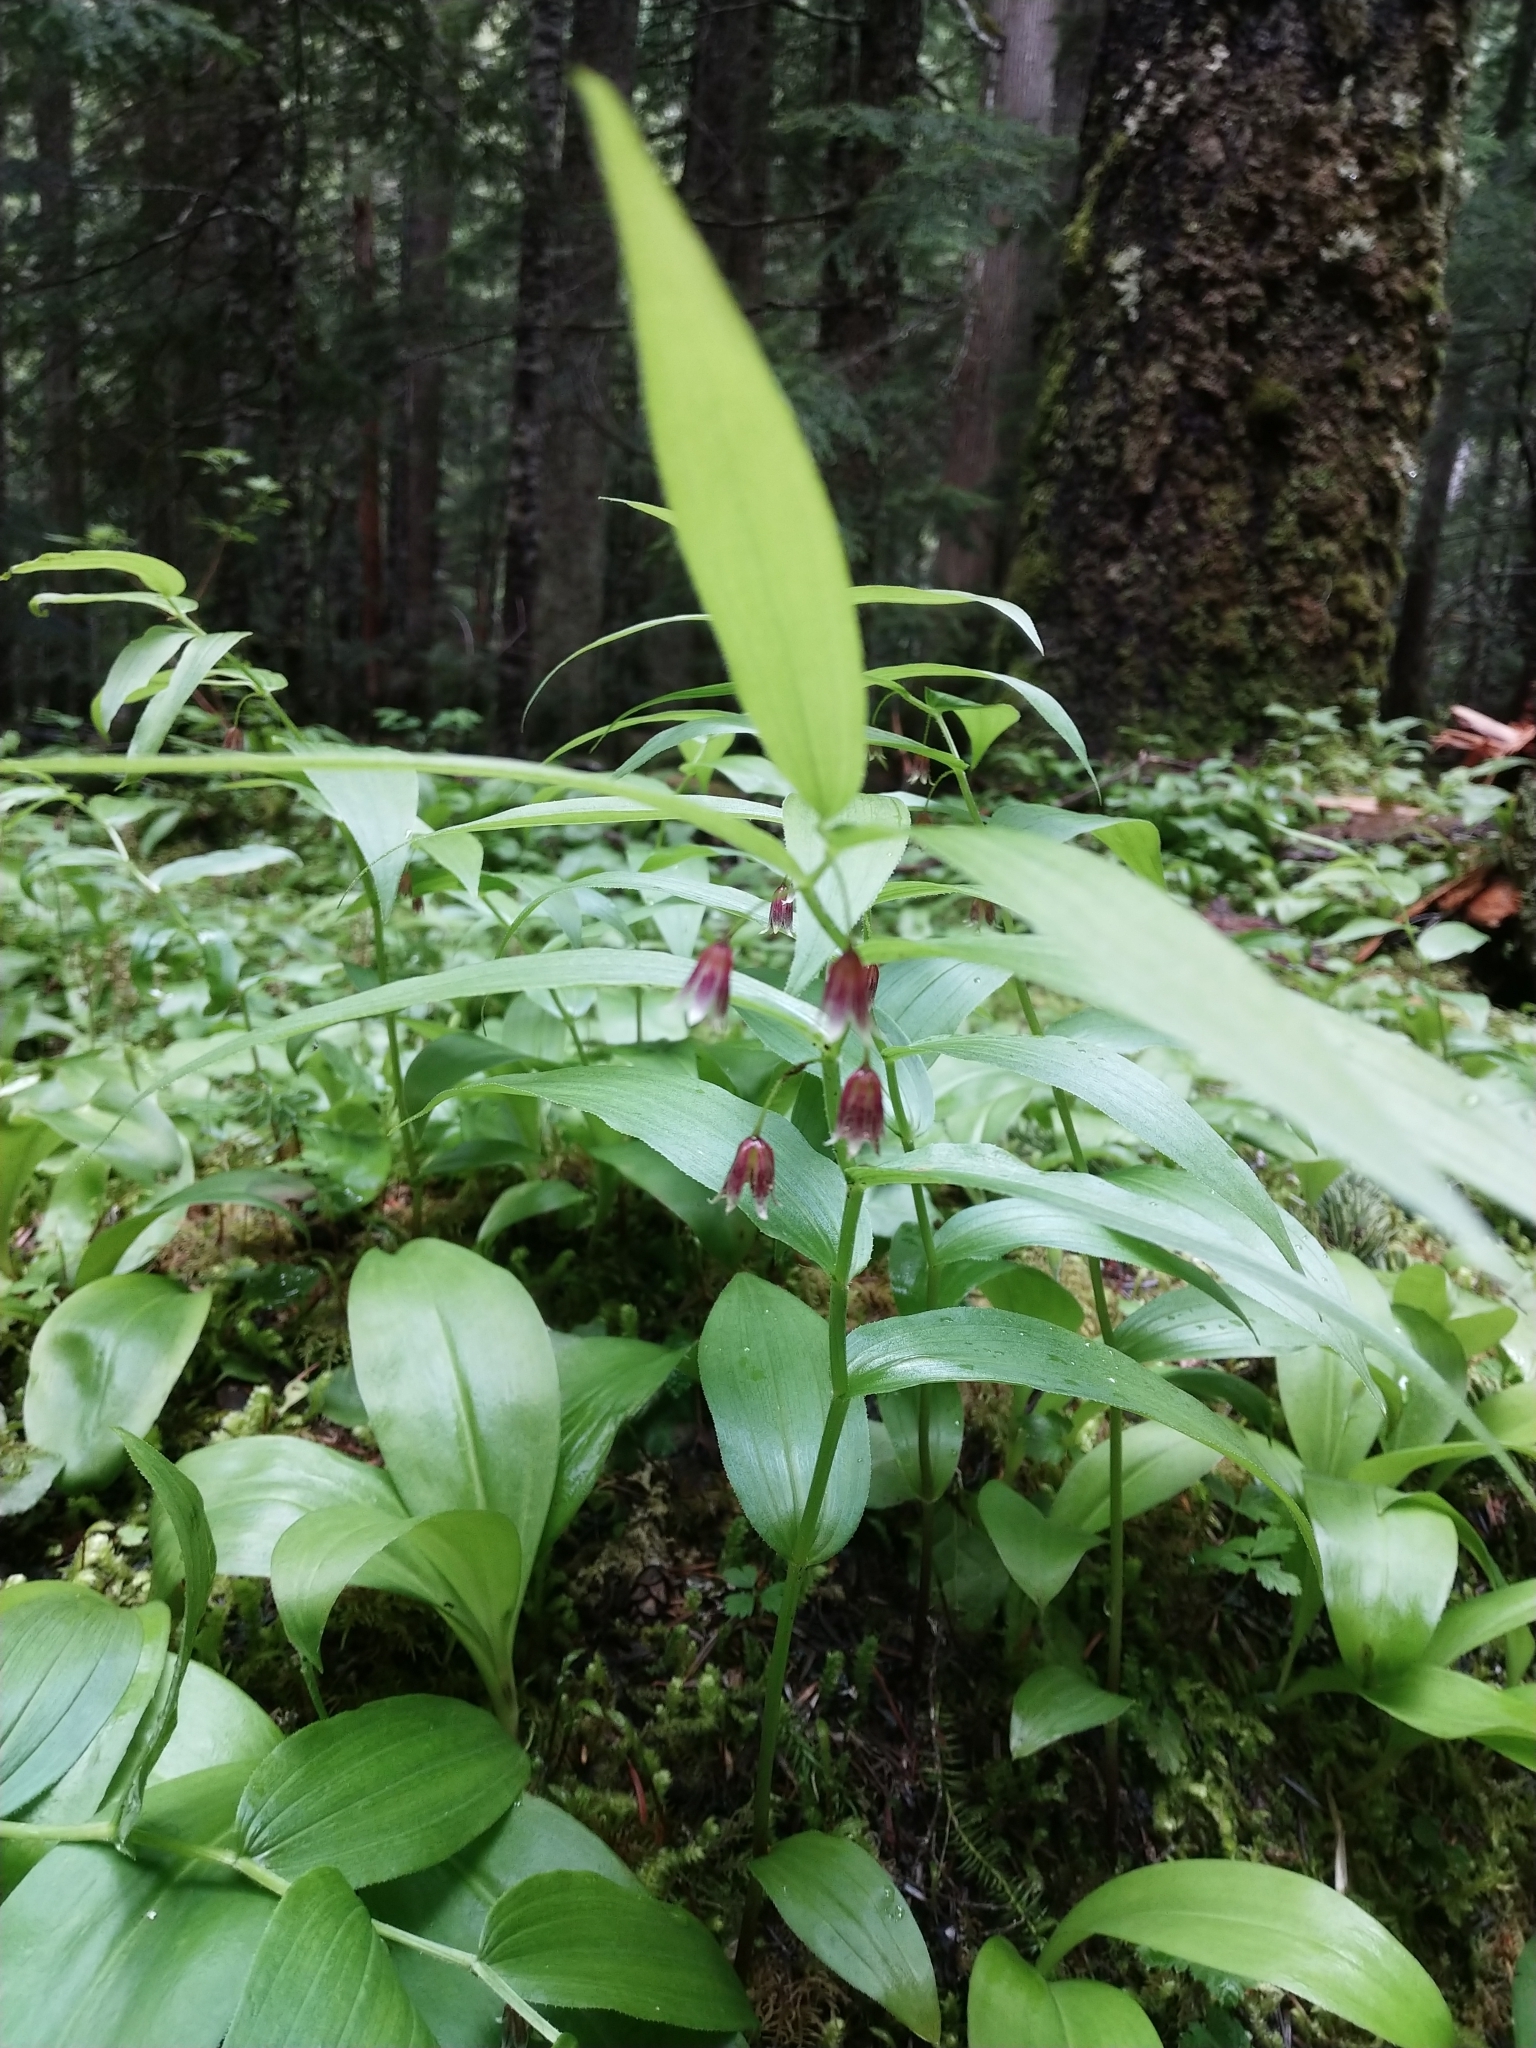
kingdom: Plantae
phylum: Tracheophyta
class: Liliopsida
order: Liliales
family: Liliaceae
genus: Streptopus
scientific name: Streptopus lanceolatus
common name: Rose mandarin
